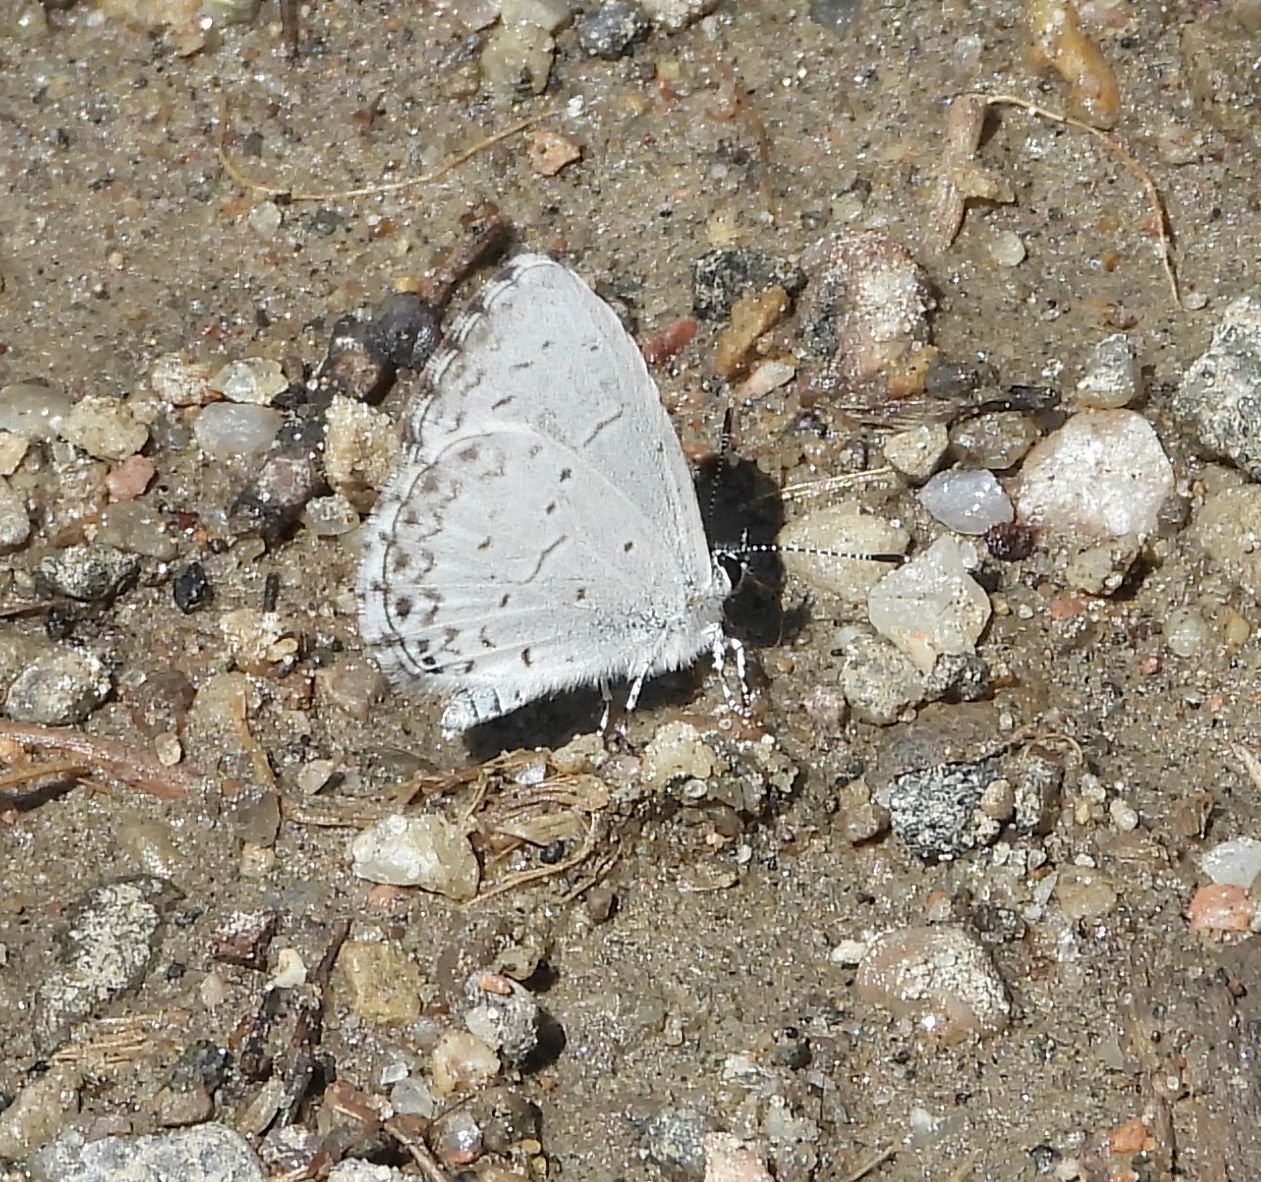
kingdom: Animalia
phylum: Arthropoda
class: Insecta
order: Lepidoptera
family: Lycaenidae
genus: Celastrina
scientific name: Celastrina lucia
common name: Lucia azure
